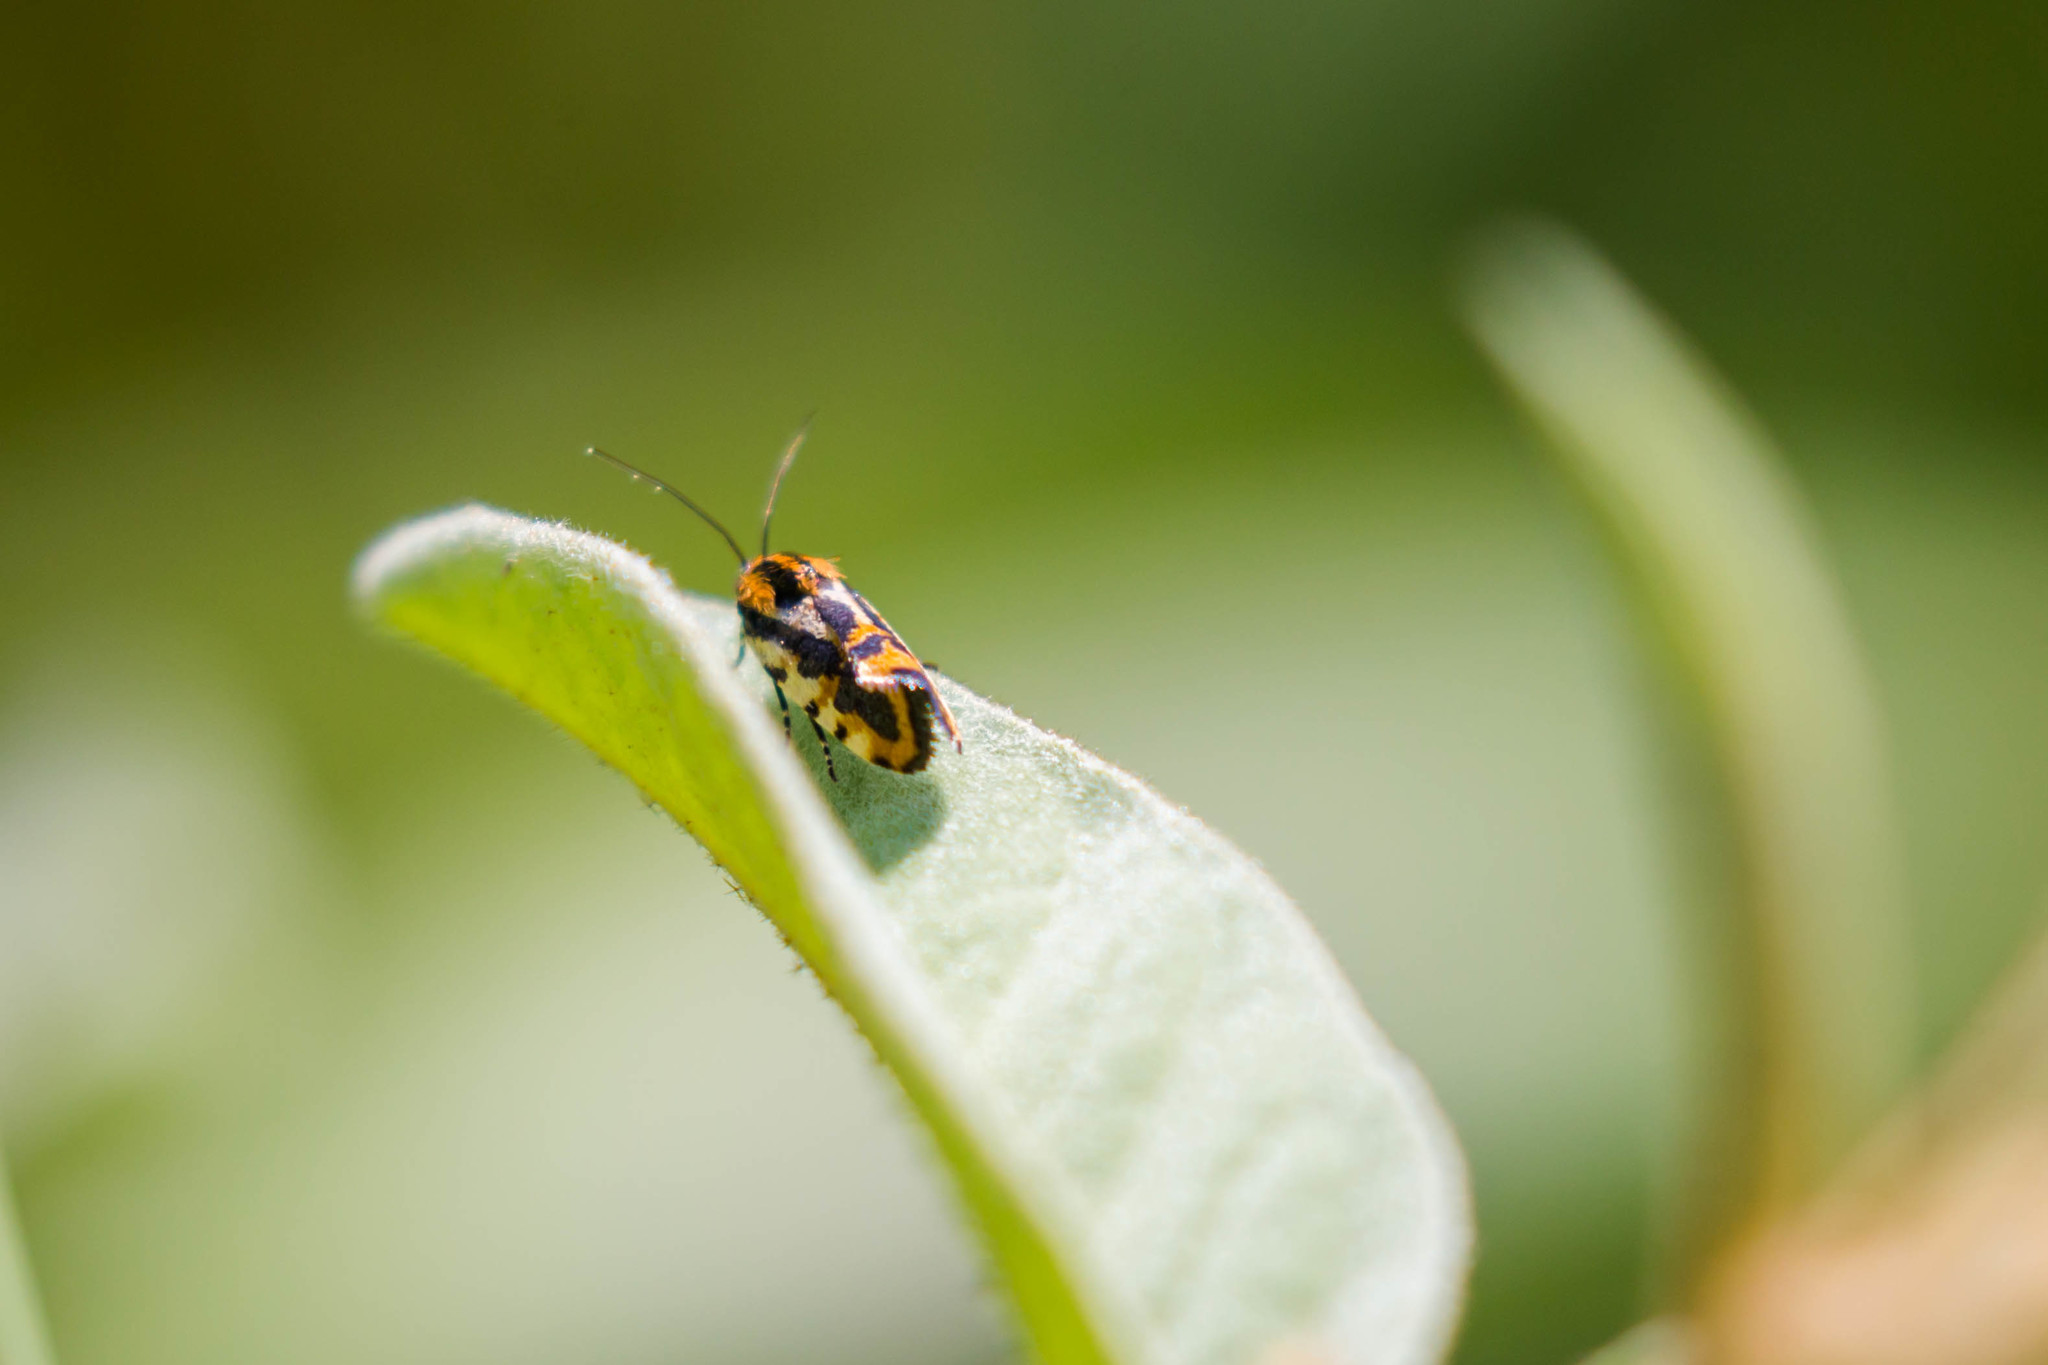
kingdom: Animalia
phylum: Arthropoda
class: Insecta
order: Lepidoptera
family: Noctuidae
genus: Acontia
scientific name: Acontia leo
